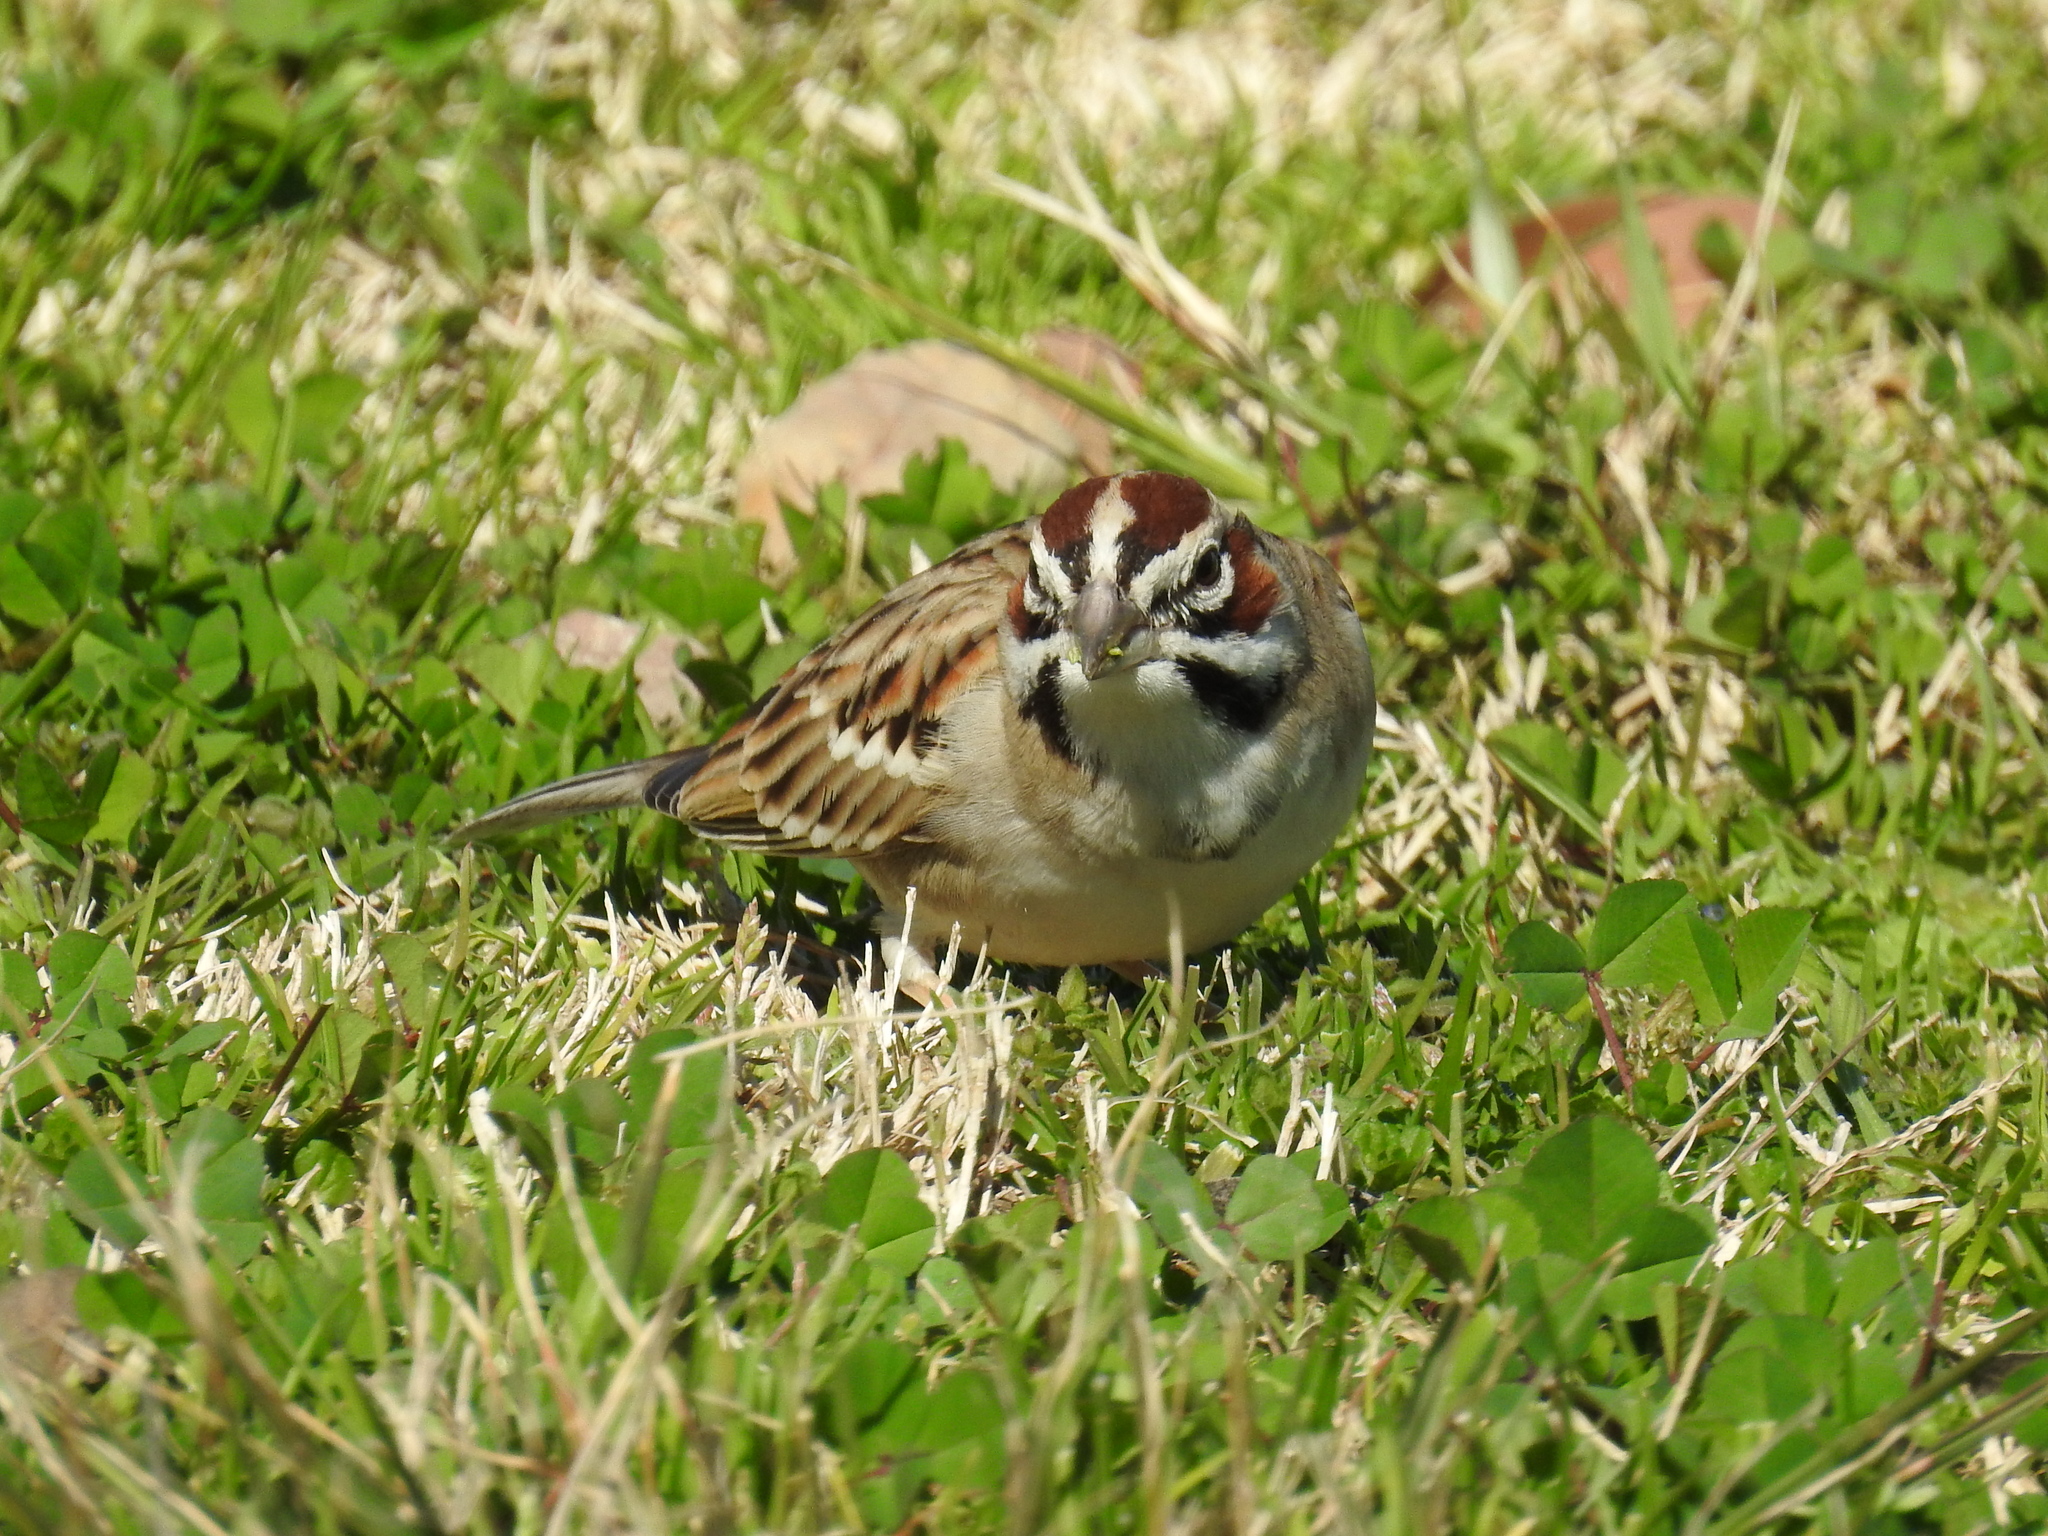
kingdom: Animalia
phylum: Chordata
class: Aves
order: Passeriformes
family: Passerellidae
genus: Chondestes
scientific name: Chondestes grammacus
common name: Lark sparrow
